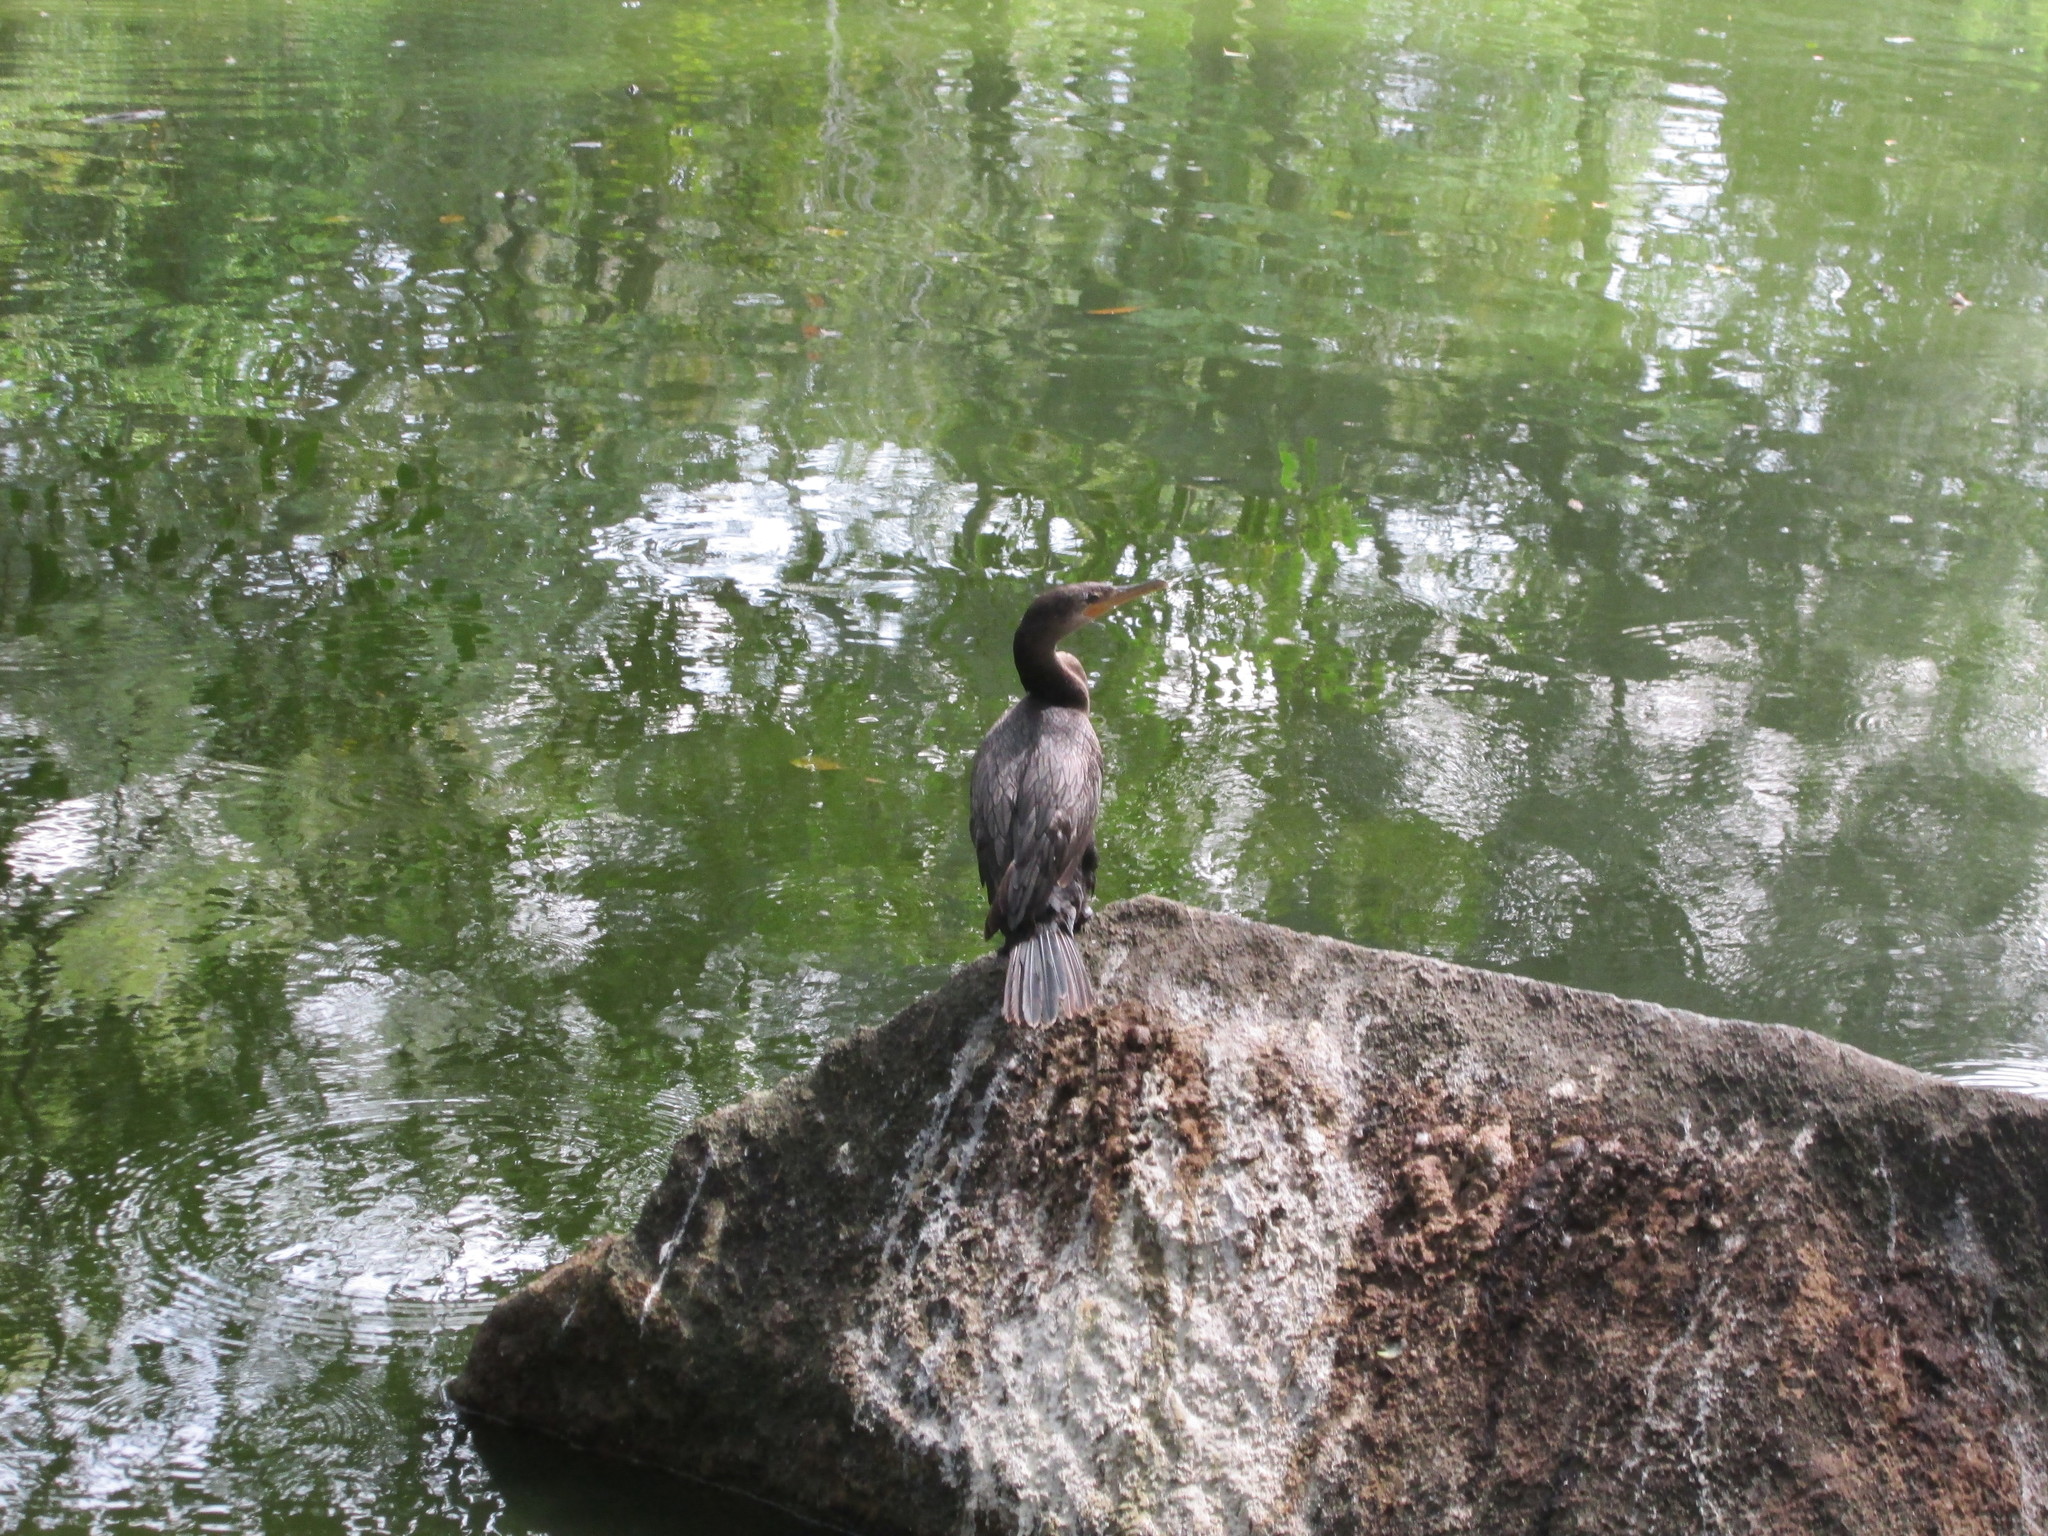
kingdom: Animalia
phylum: Chordata
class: Aves
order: Suliformes
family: Phalacrocoracidae
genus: Phalacrocorax
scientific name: Phalacrocorax brasilianus
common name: Neotropic cormorant
